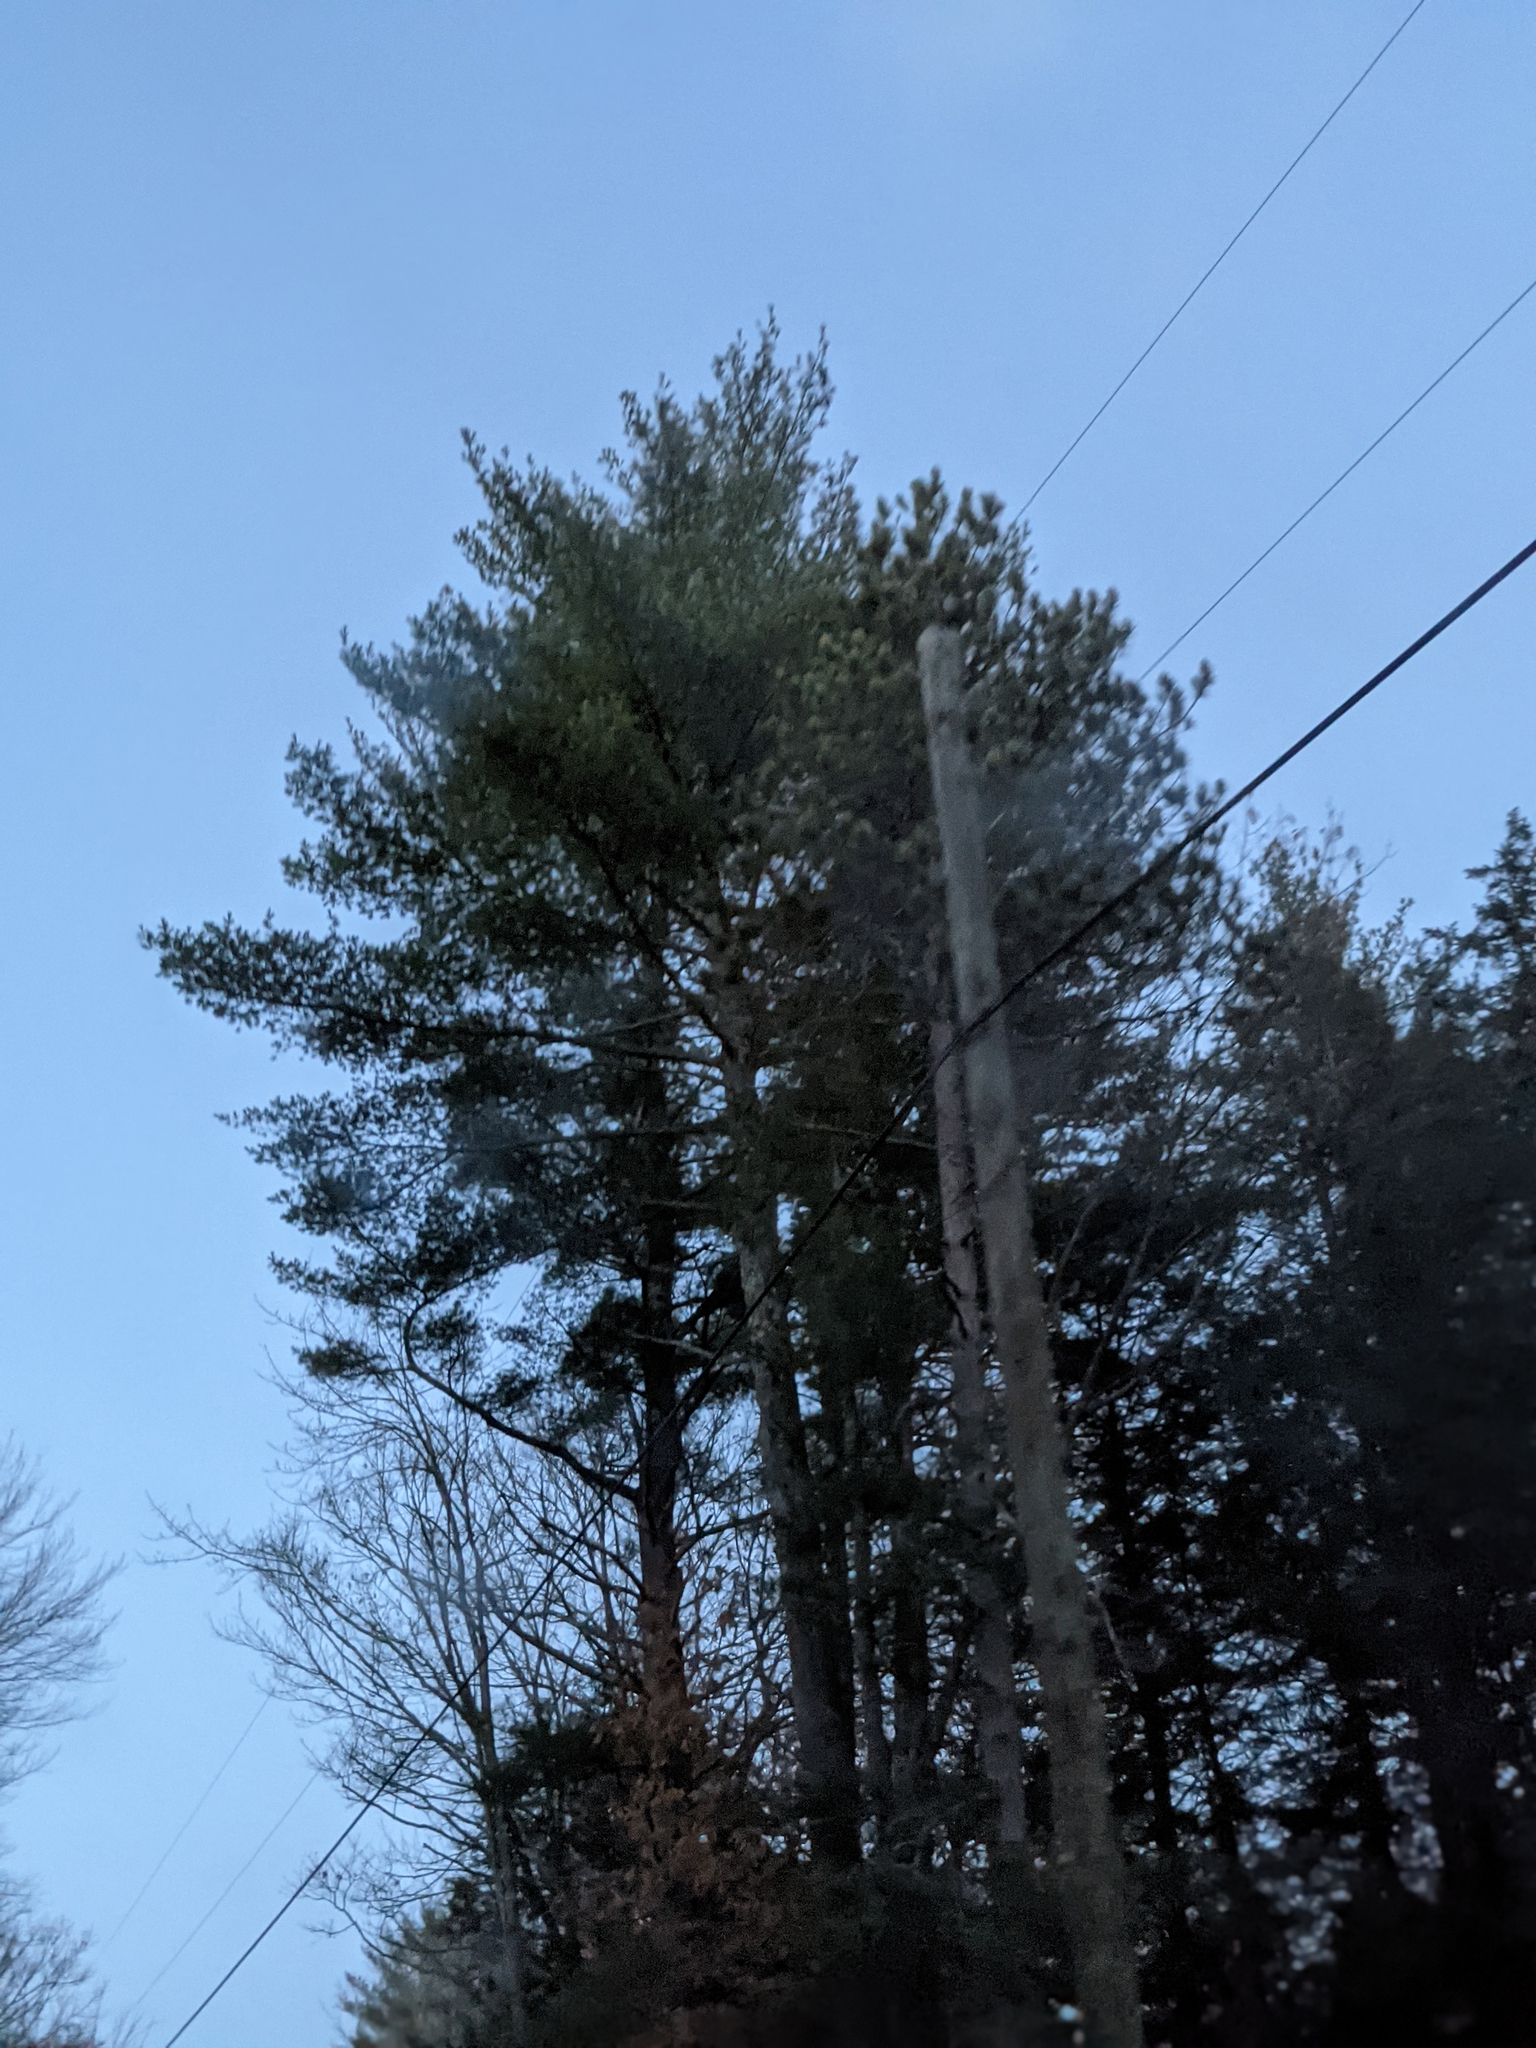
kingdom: Plantae
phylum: Tracheophyta
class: Pinopsida
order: Pinales
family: Pinaceae
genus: Pinus
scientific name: Pinus strobus
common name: Weymouth pine
